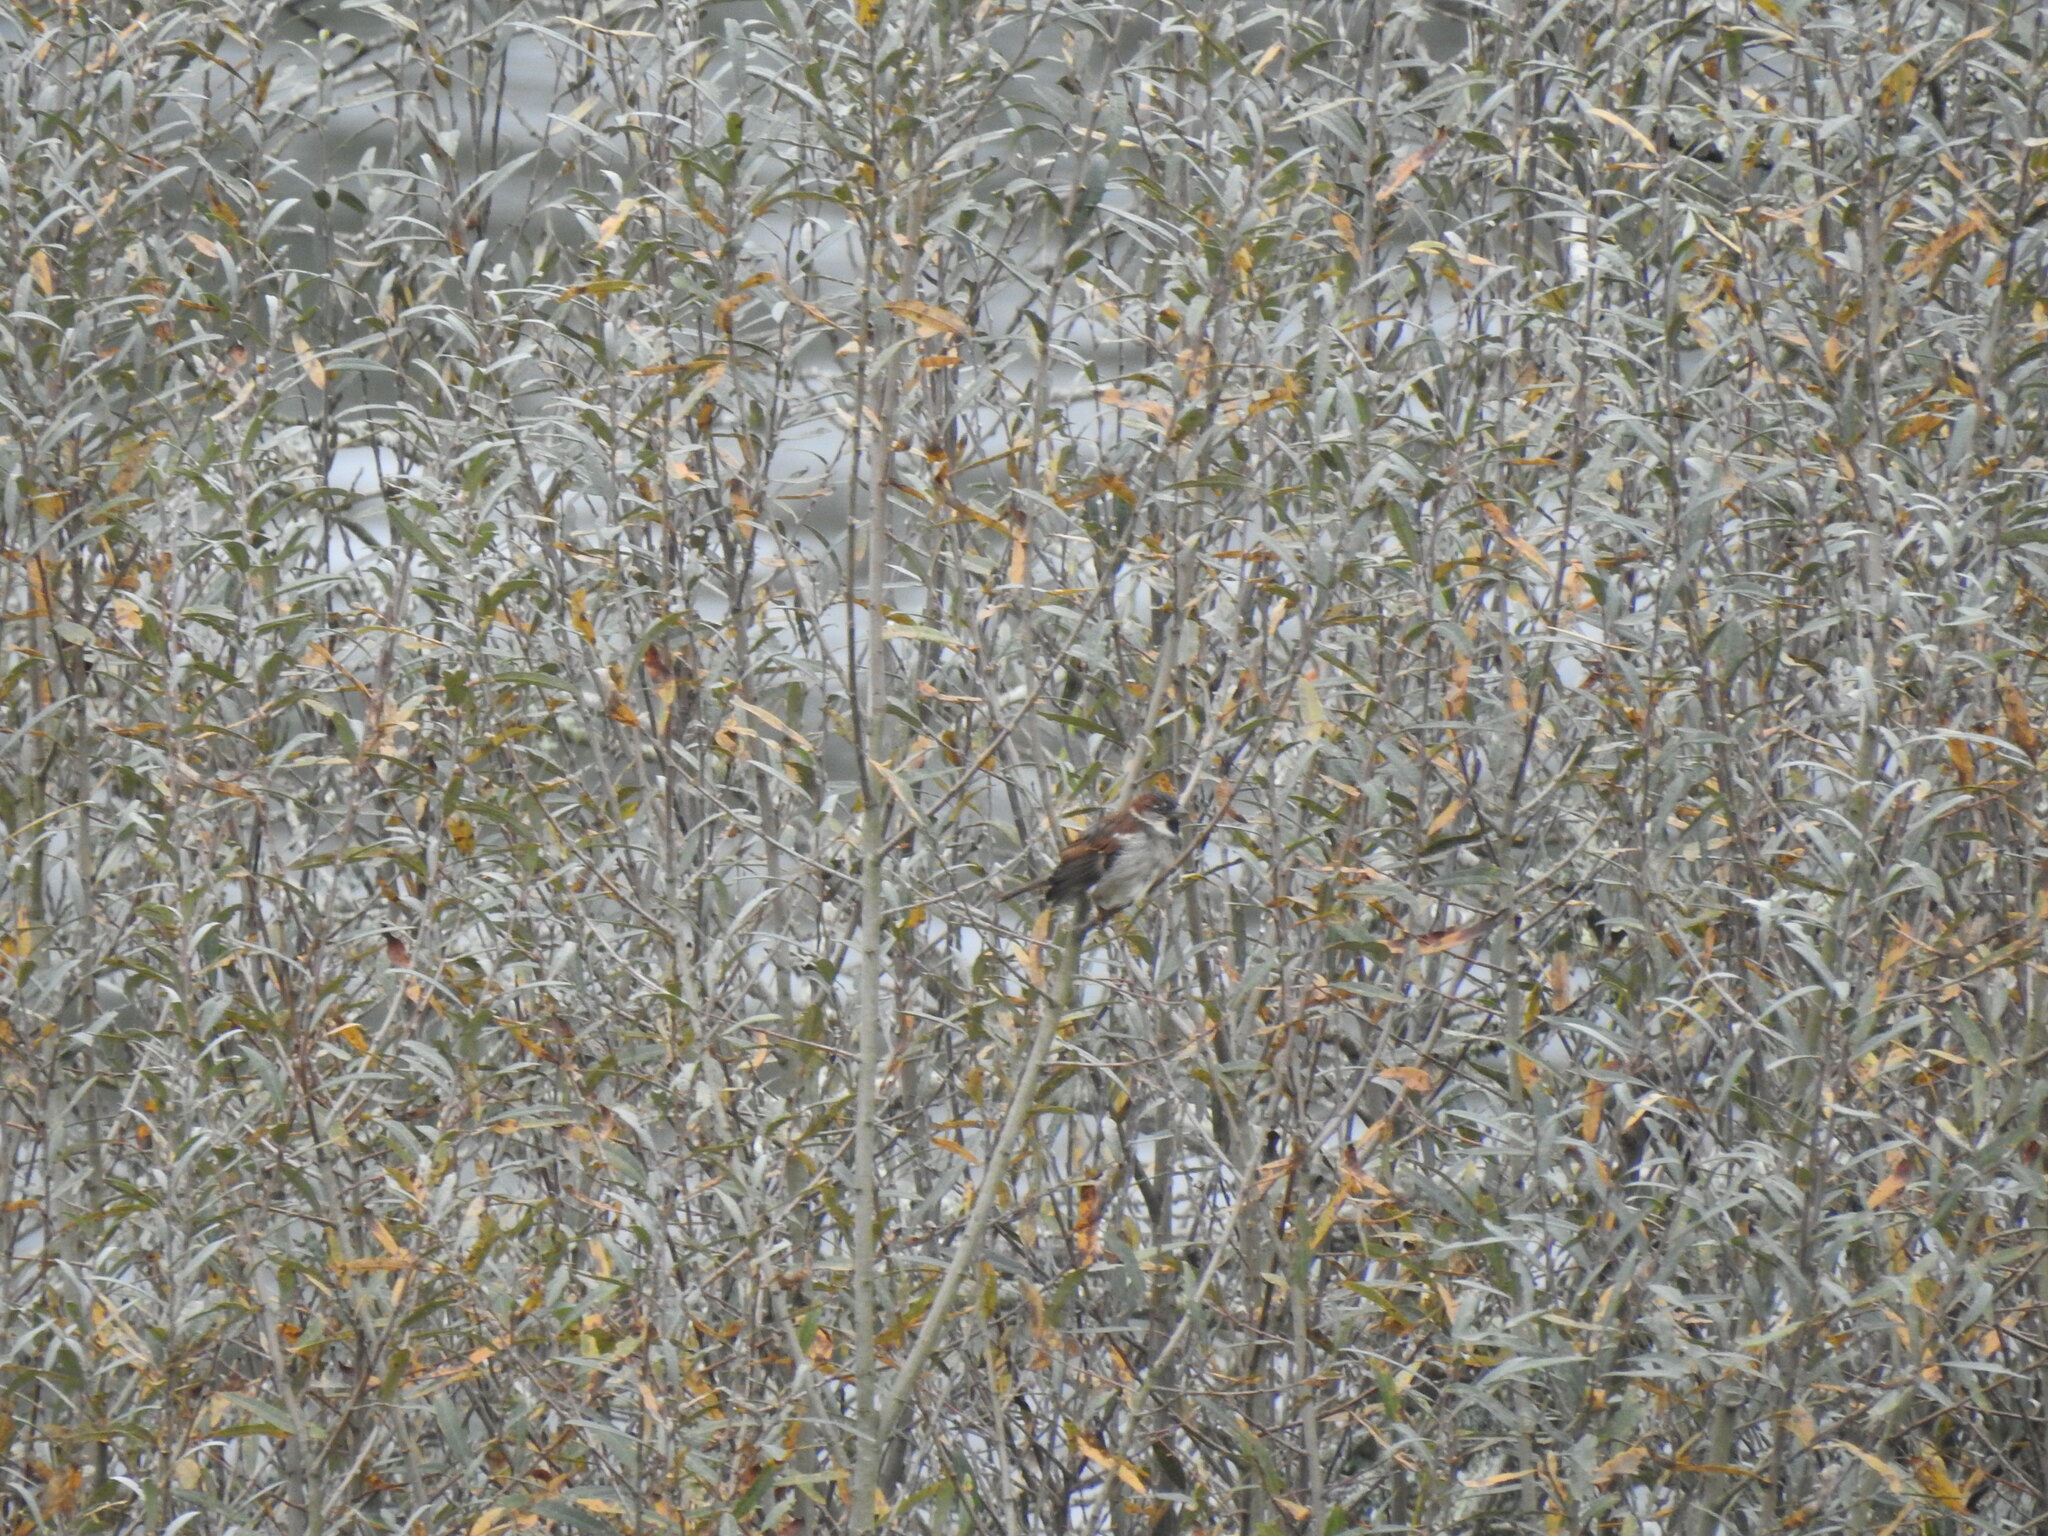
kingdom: Animalia
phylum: Chordata
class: Aves
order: Passeriformes
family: Passeridae
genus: Passer
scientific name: Passer domesticus
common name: House sparrow
